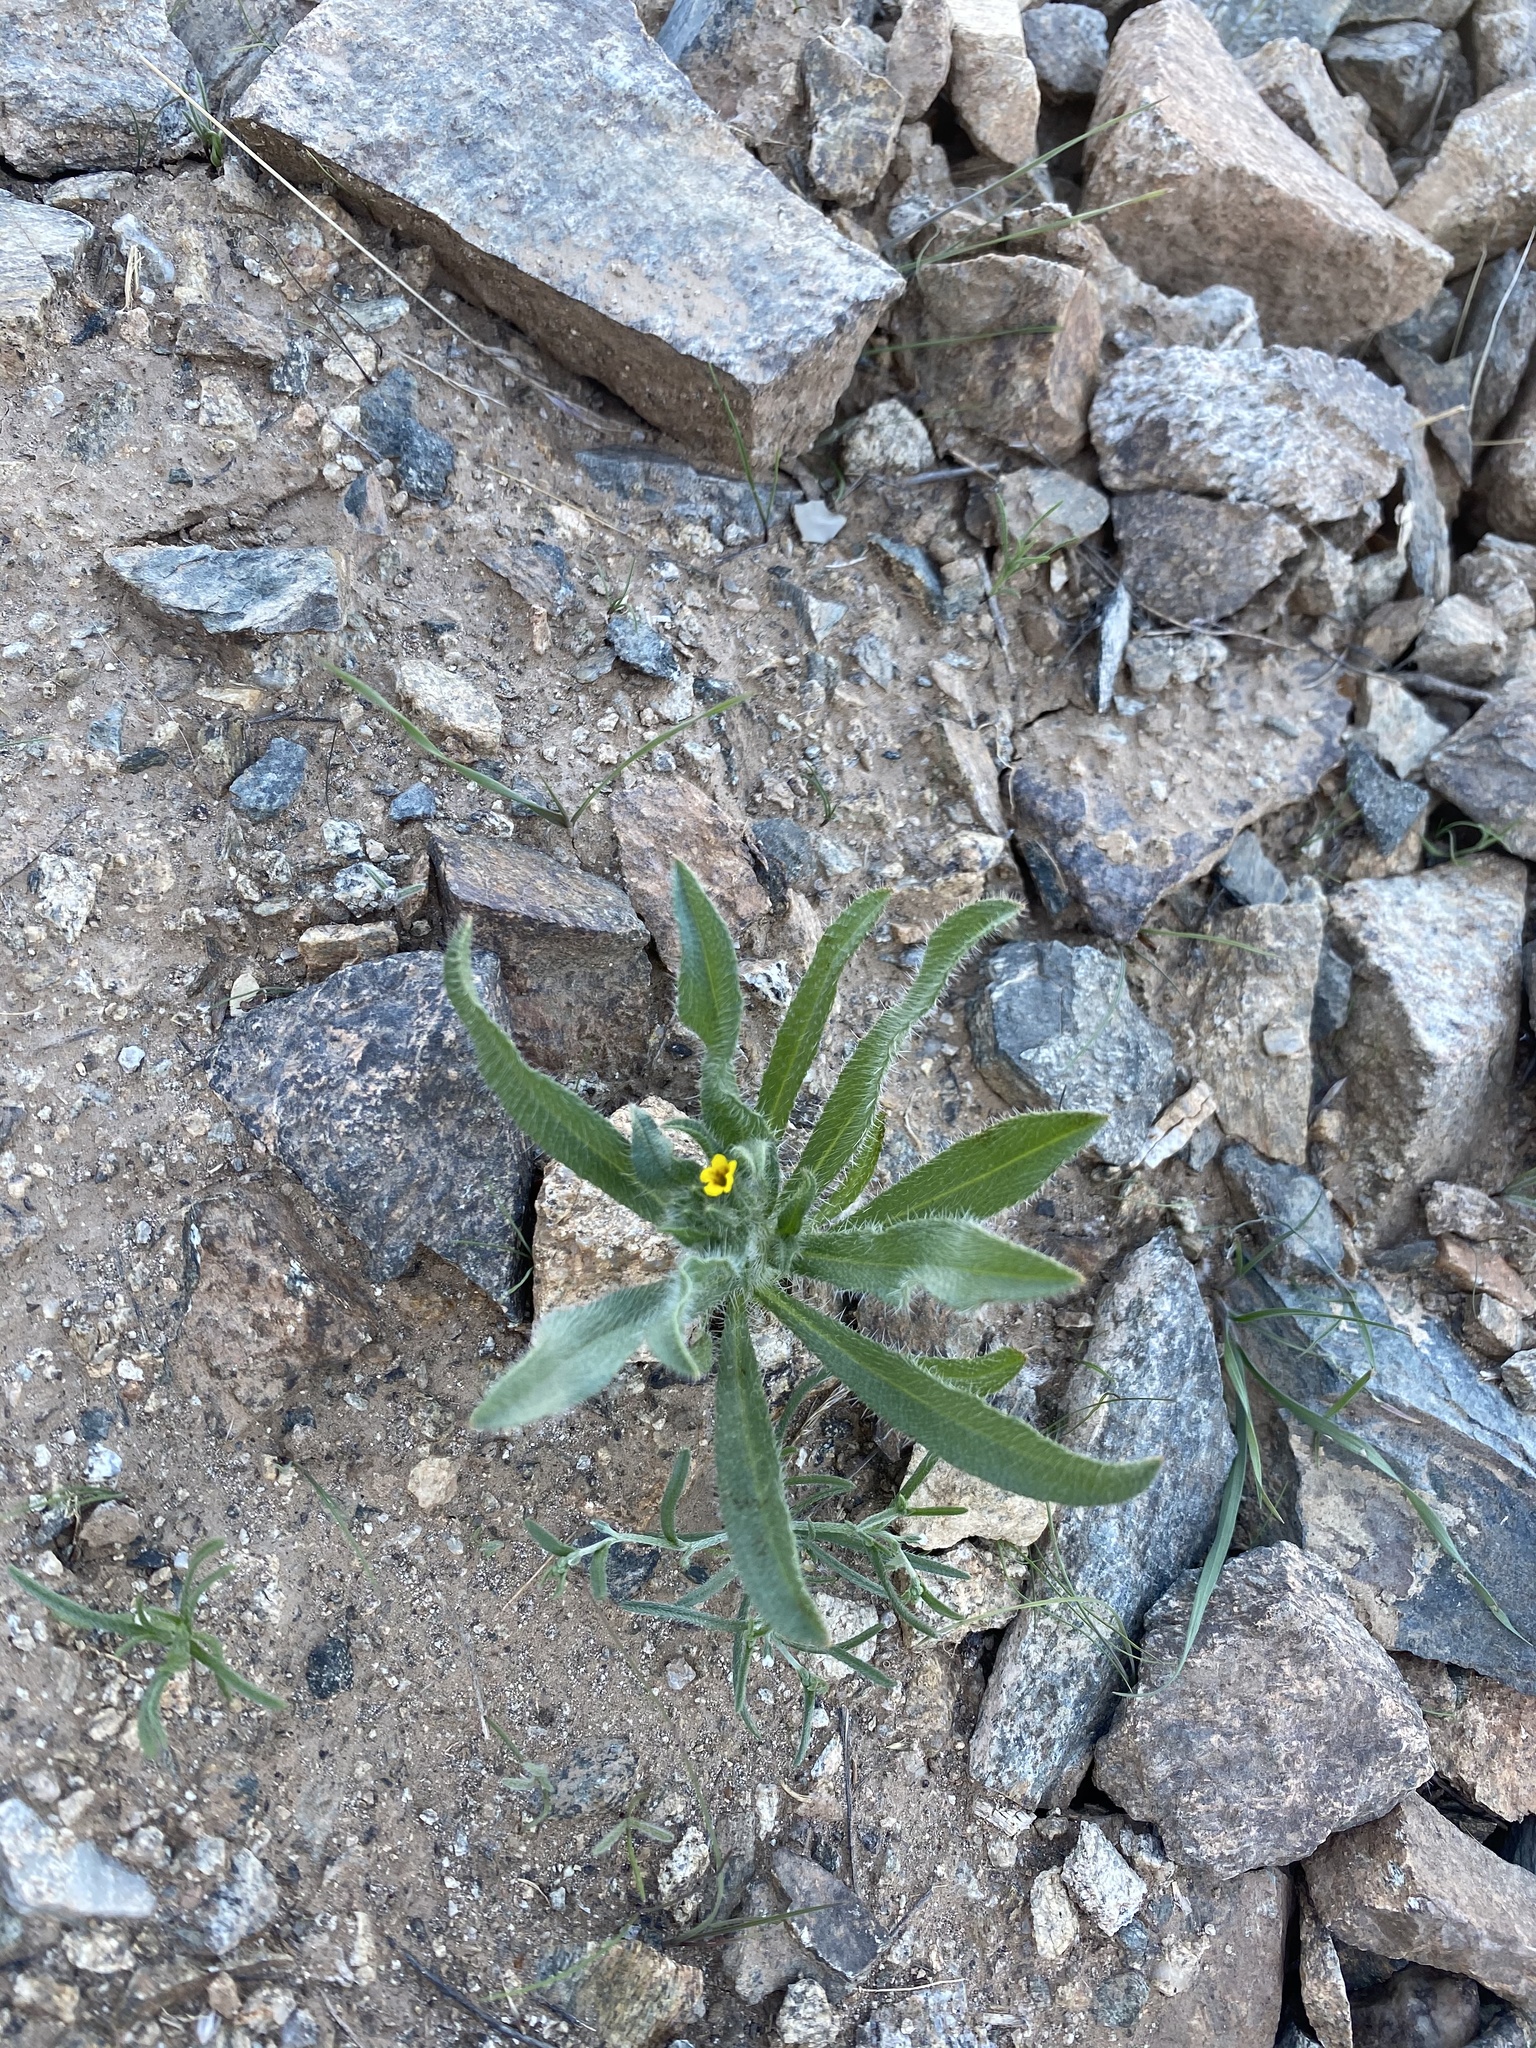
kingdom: Plantae
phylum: Tracheophyta
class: Magnoliopsida
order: Boraginales
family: Boraginaceae
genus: Amsinckia
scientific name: Amsinckia menziesii
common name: Menzies' fiddleneck
